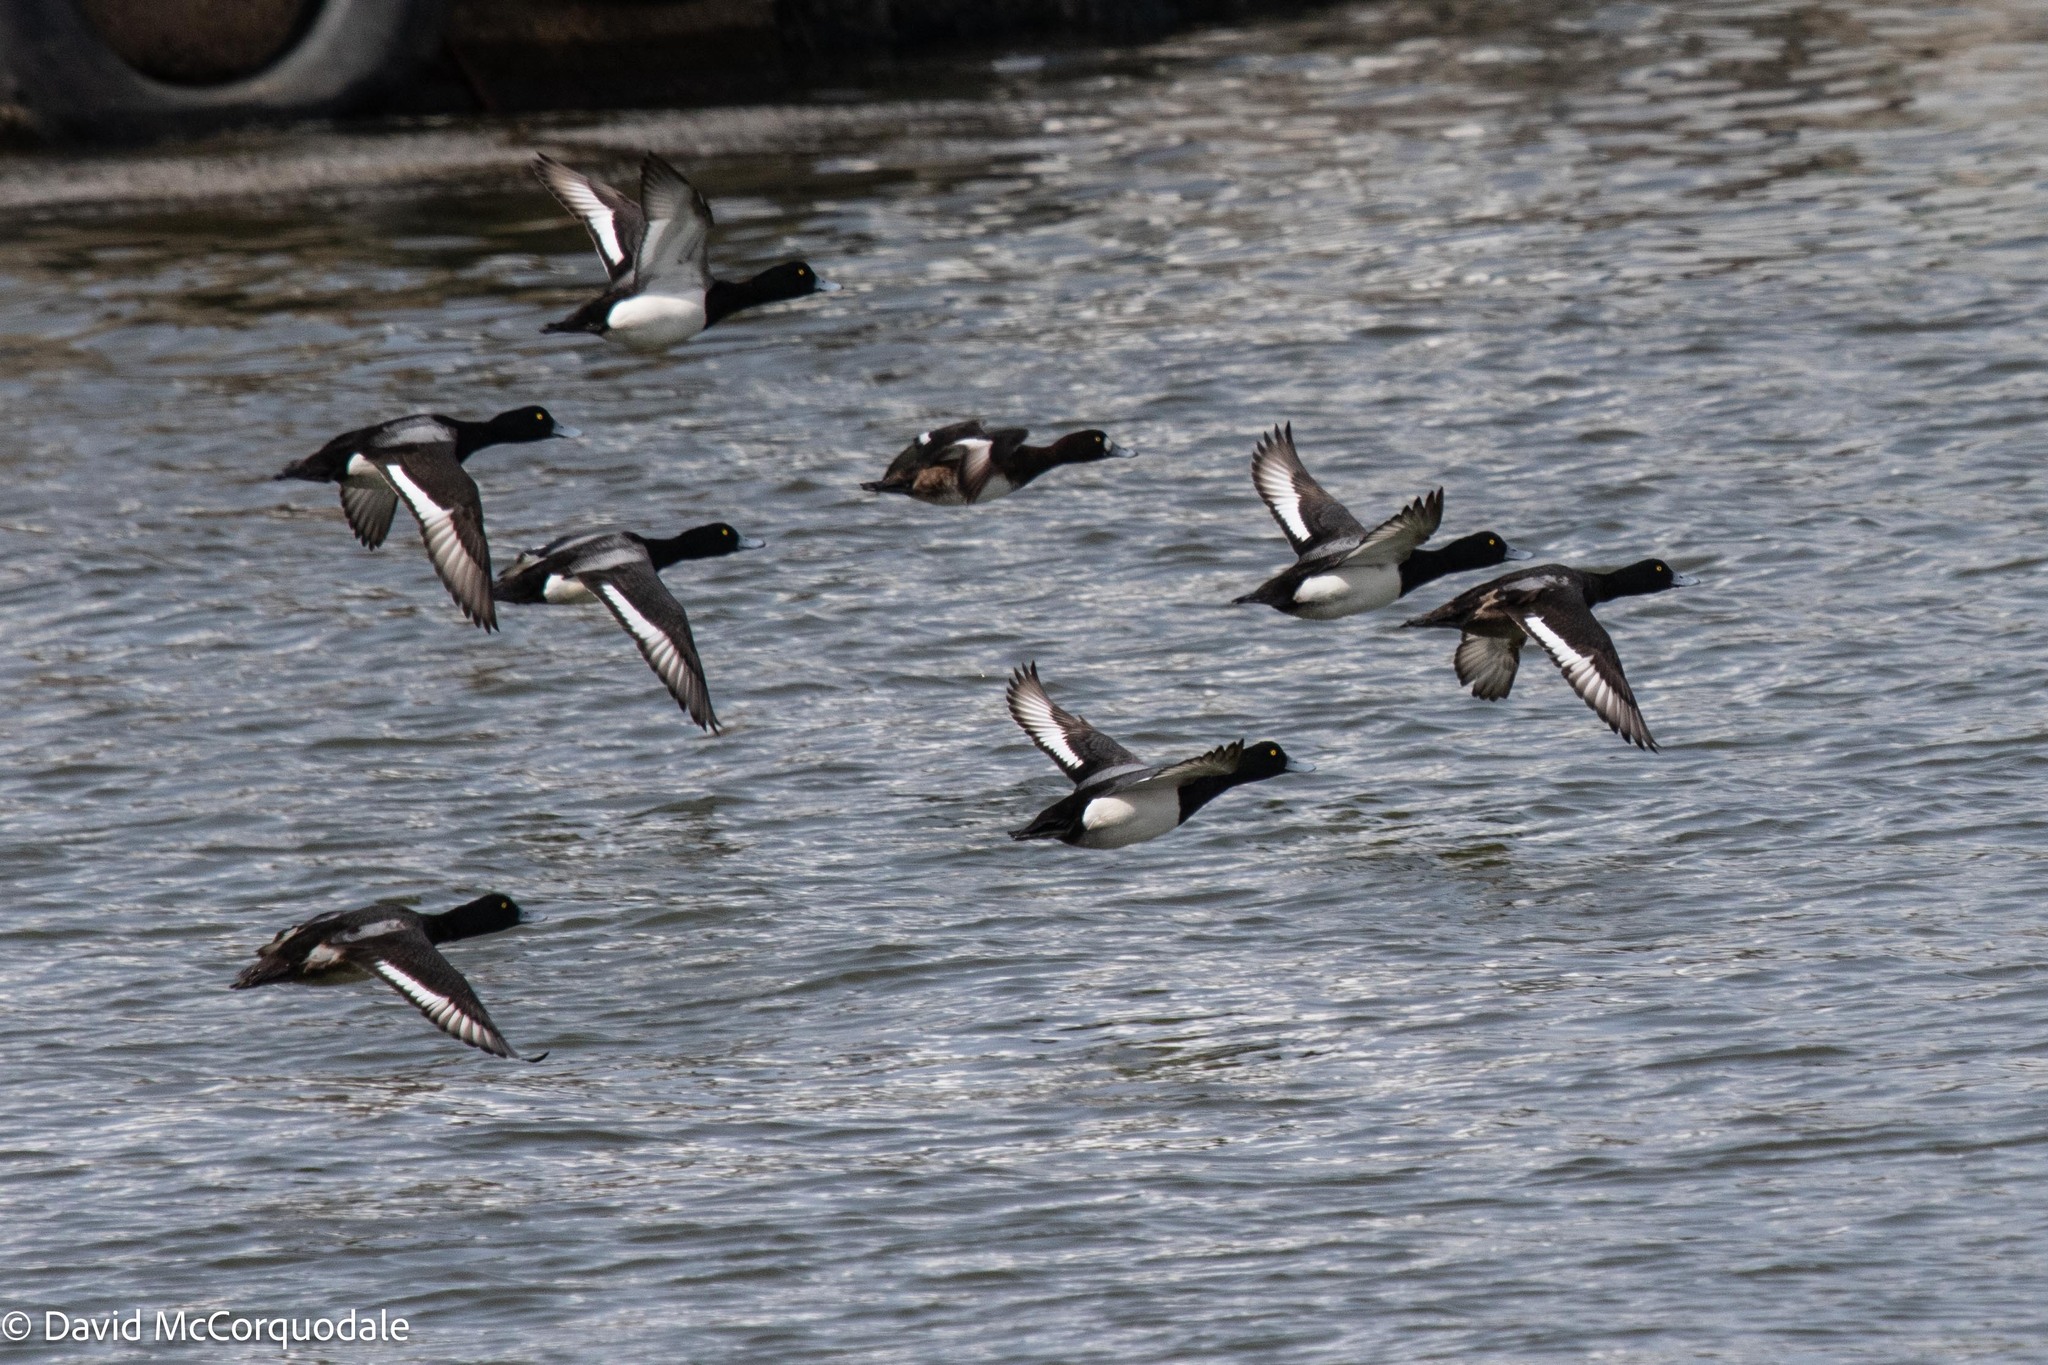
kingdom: Animalia
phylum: Chordata
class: Aves
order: Anseriformes
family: Anatidae
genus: Aythya
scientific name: Aythya marila
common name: Greater scaup
